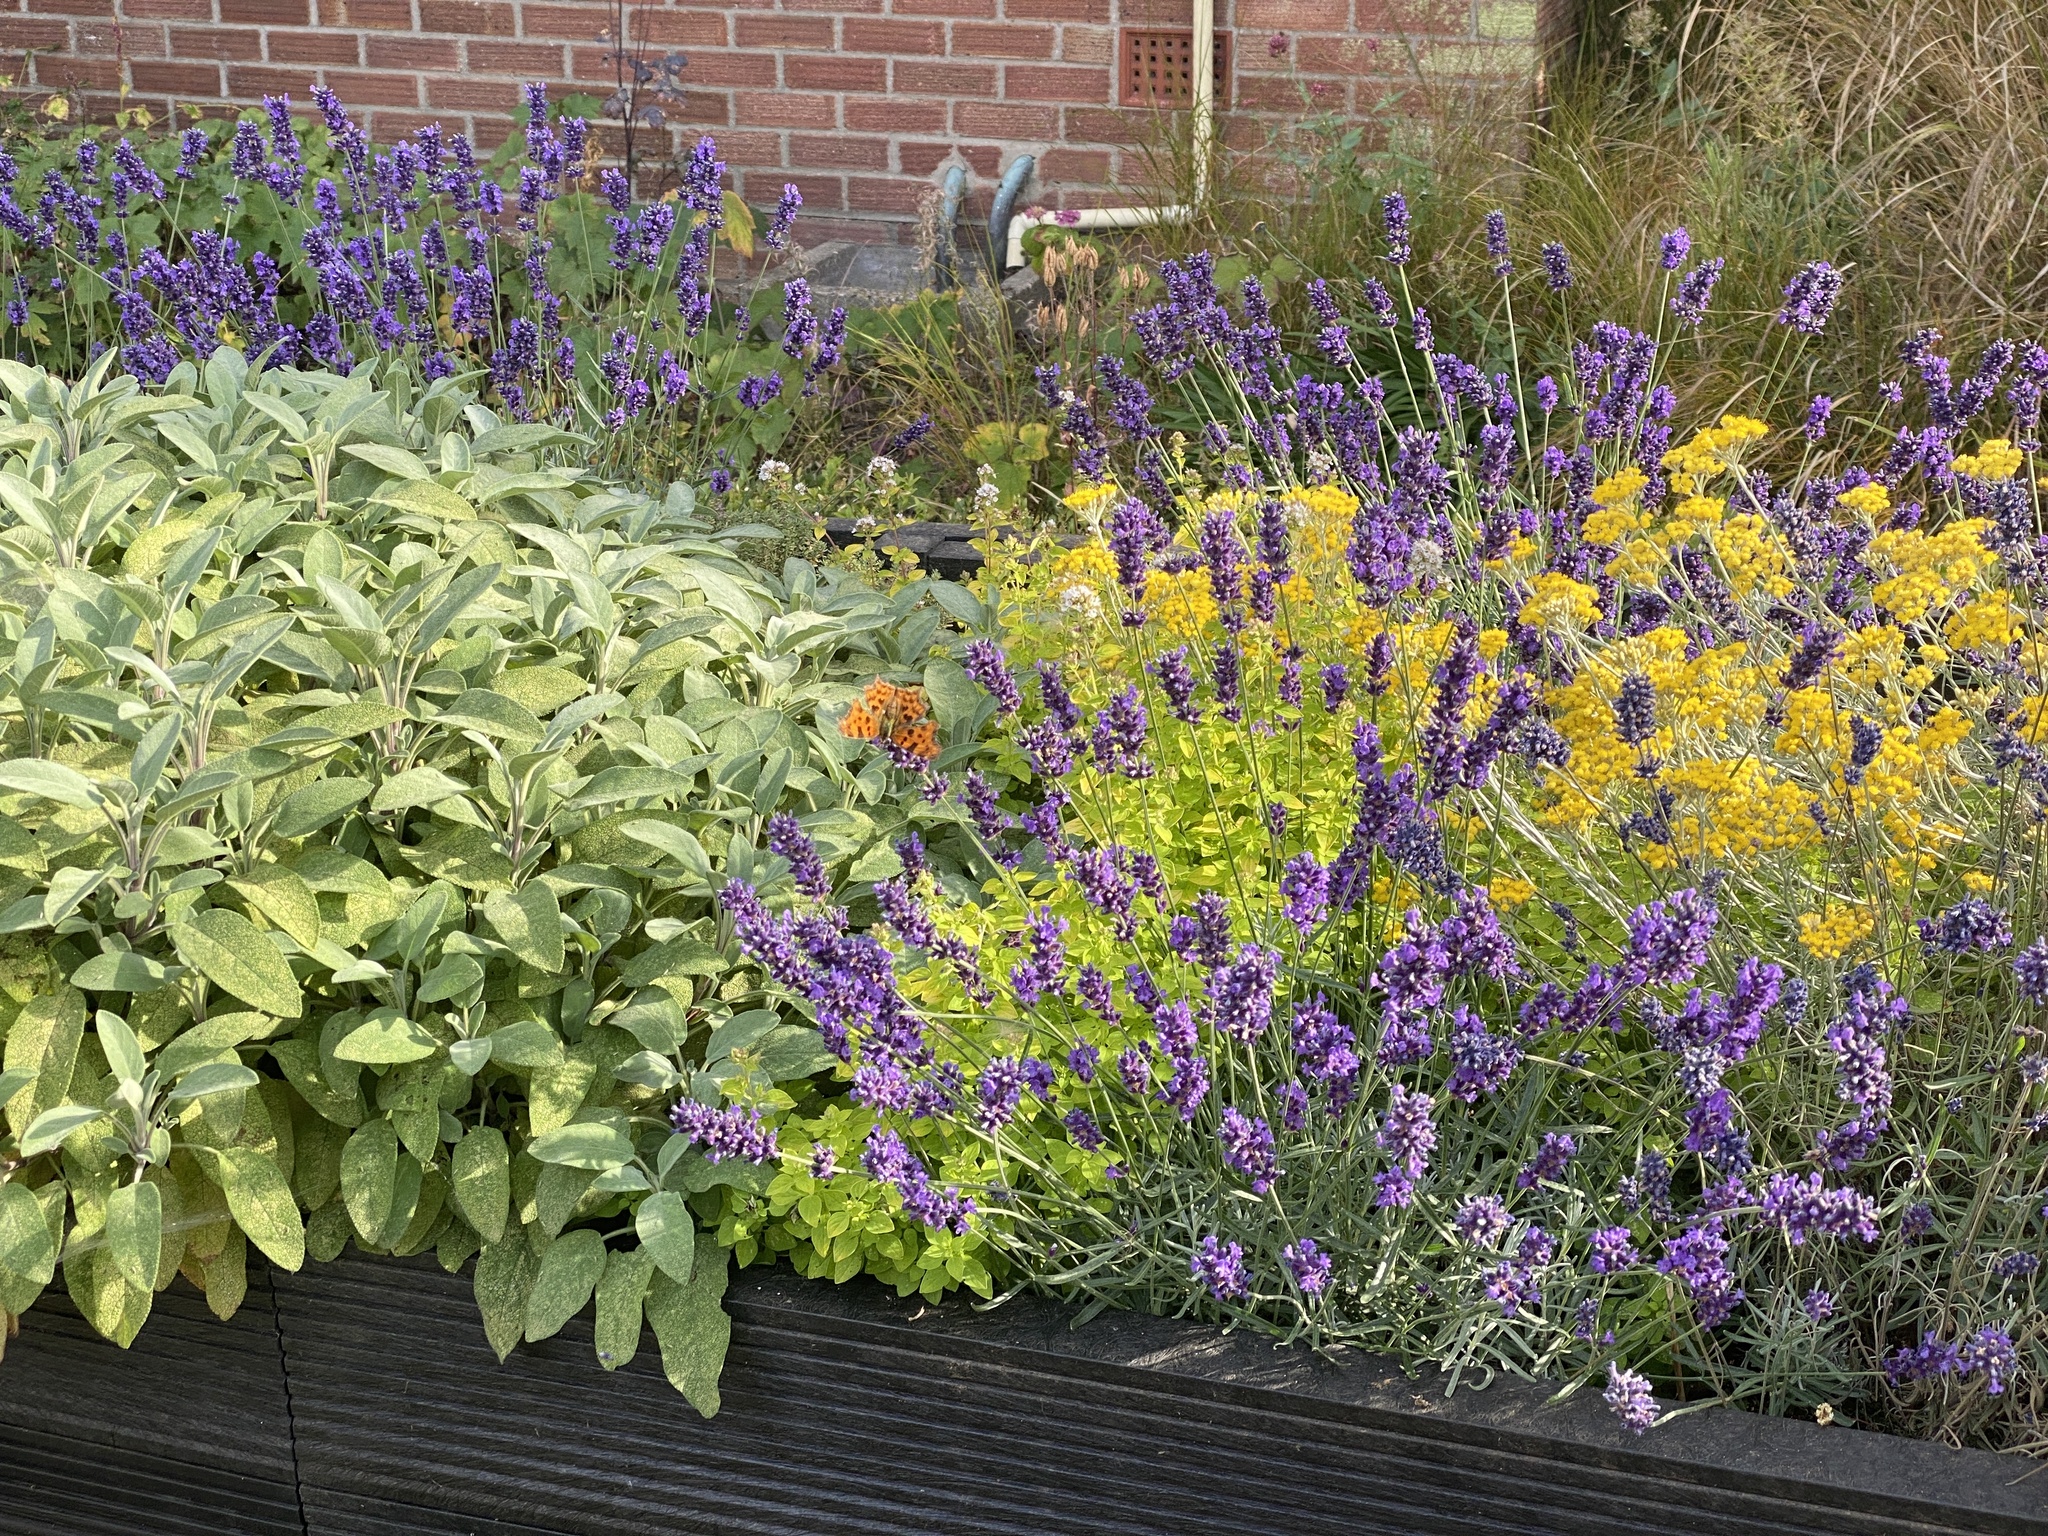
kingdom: Animalia
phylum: Arthropoda
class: Insecta
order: Lepidoptera
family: Nymphalidae
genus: Polygonia
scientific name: Polygonia c-album
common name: Comma
